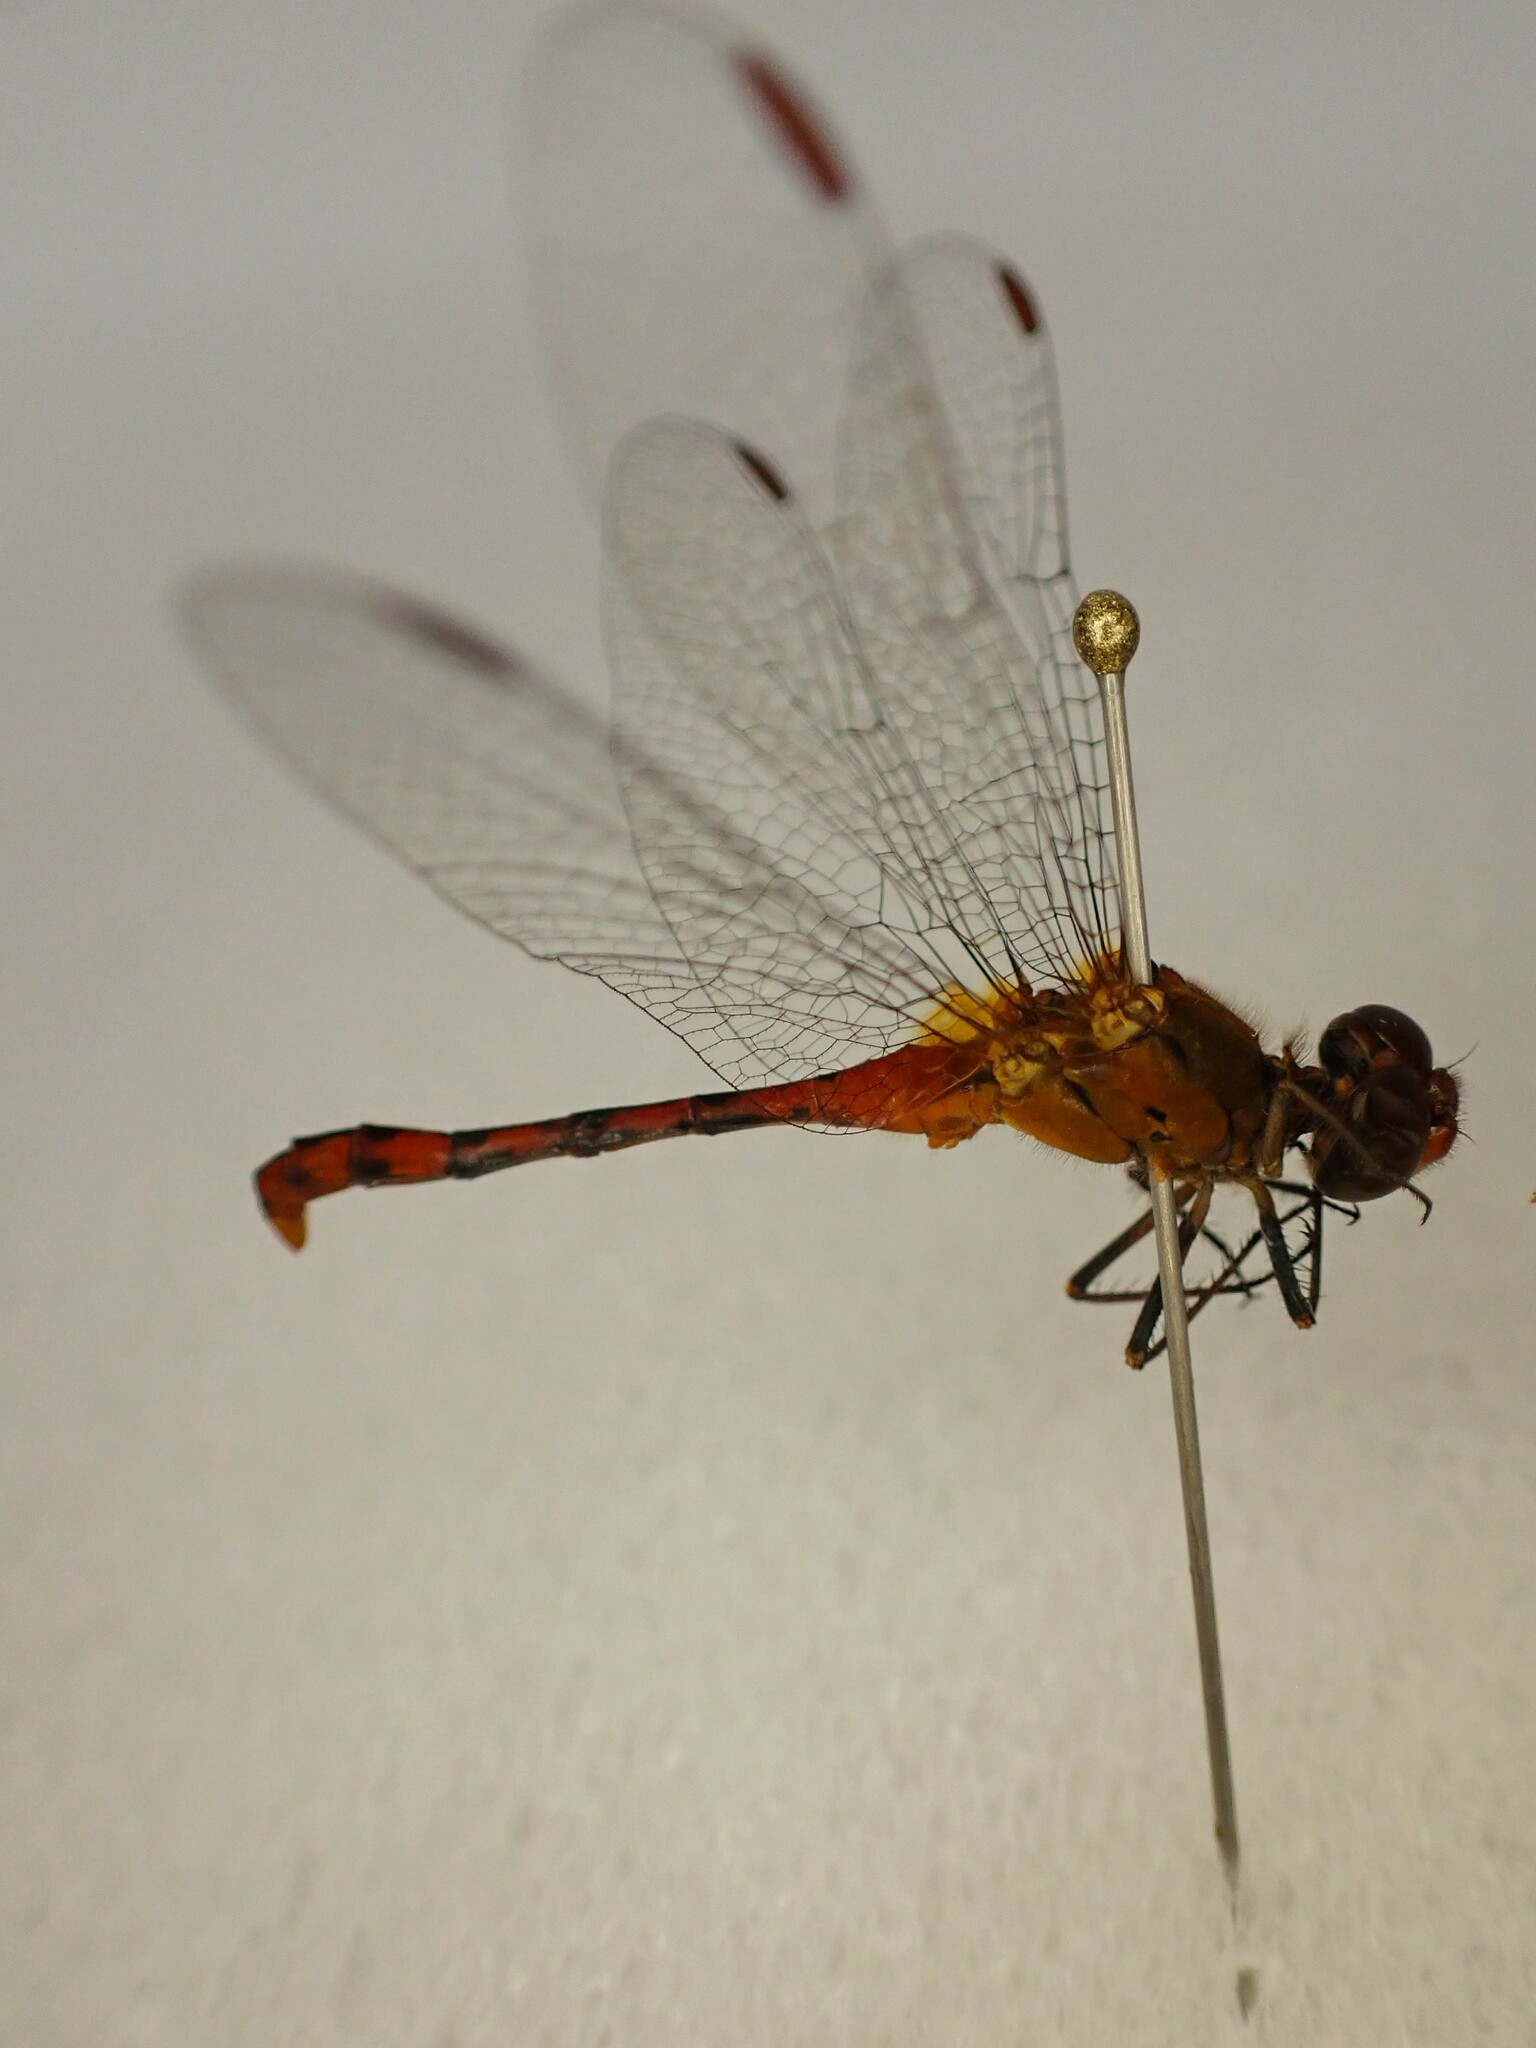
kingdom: Animalia
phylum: Arthropoda
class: Insecta
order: Odonata
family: Libellulidae
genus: Diplacodes
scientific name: Diplacodes bipunctata
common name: Red percher dragonfly
